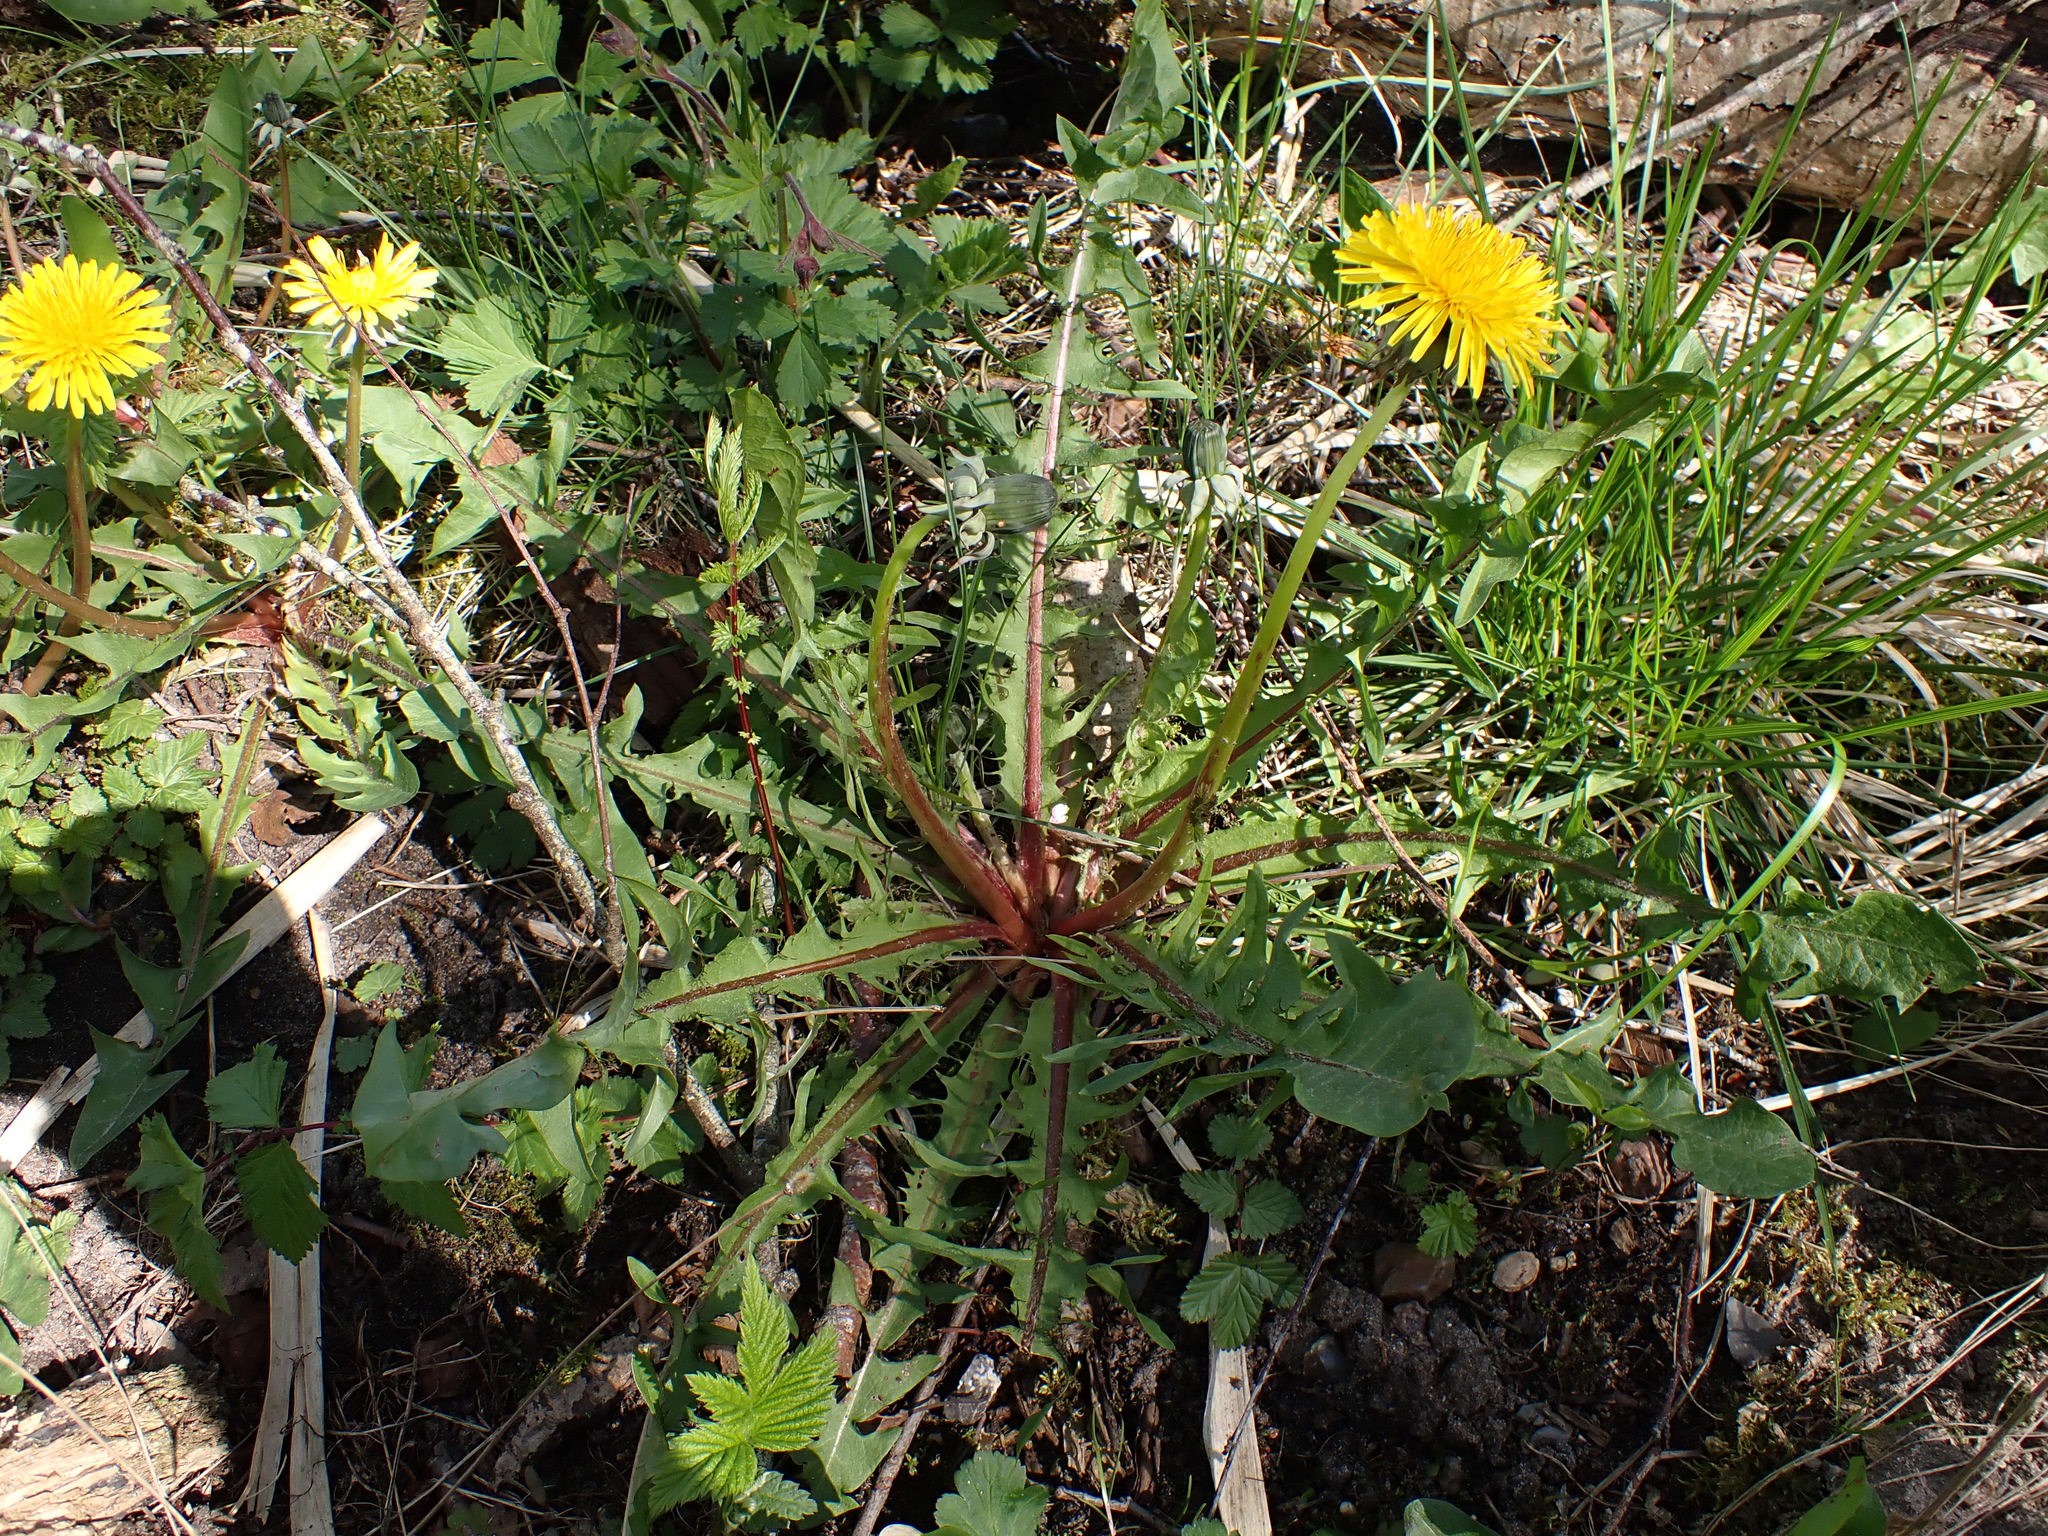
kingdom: Plantae
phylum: Tracheophyta
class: Magnoliopsida
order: Asterales
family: Asteraceae
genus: Taraxacum
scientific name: Taraxacum pectinatiforme
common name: Pectinate-leaved dandelion
